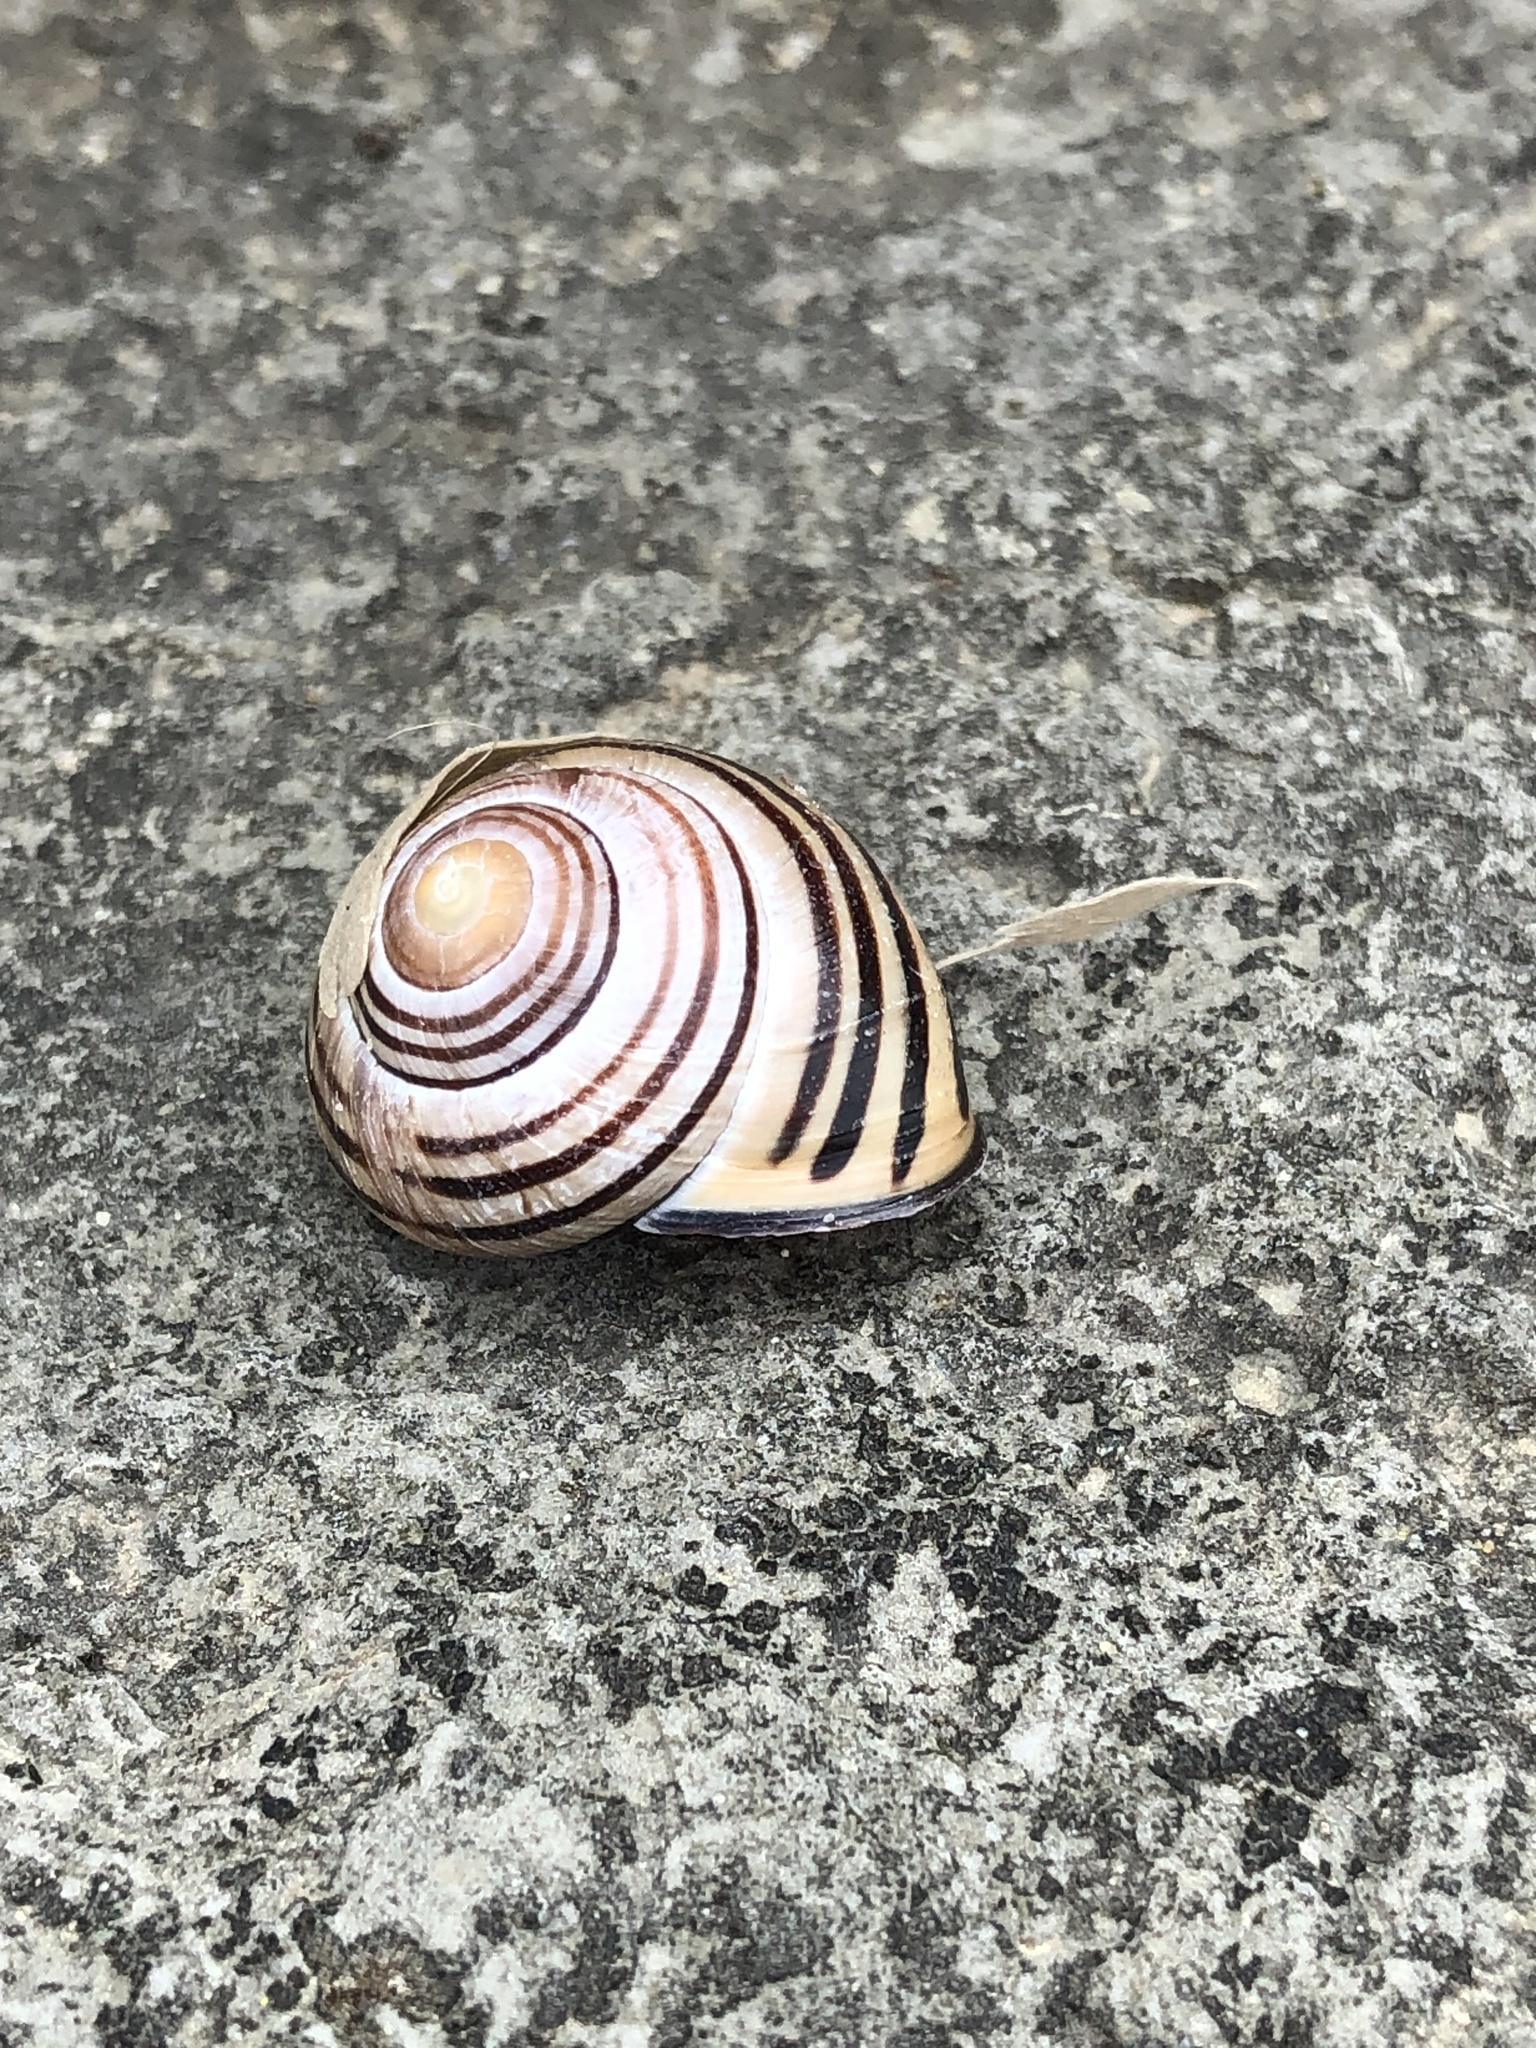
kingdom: Animalia
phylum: Mollusca
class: Gastropoda
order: Stylommatophora
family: Helicidae
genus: Cepaea
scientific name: Cepaea nemoralis
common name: Grovesnail
